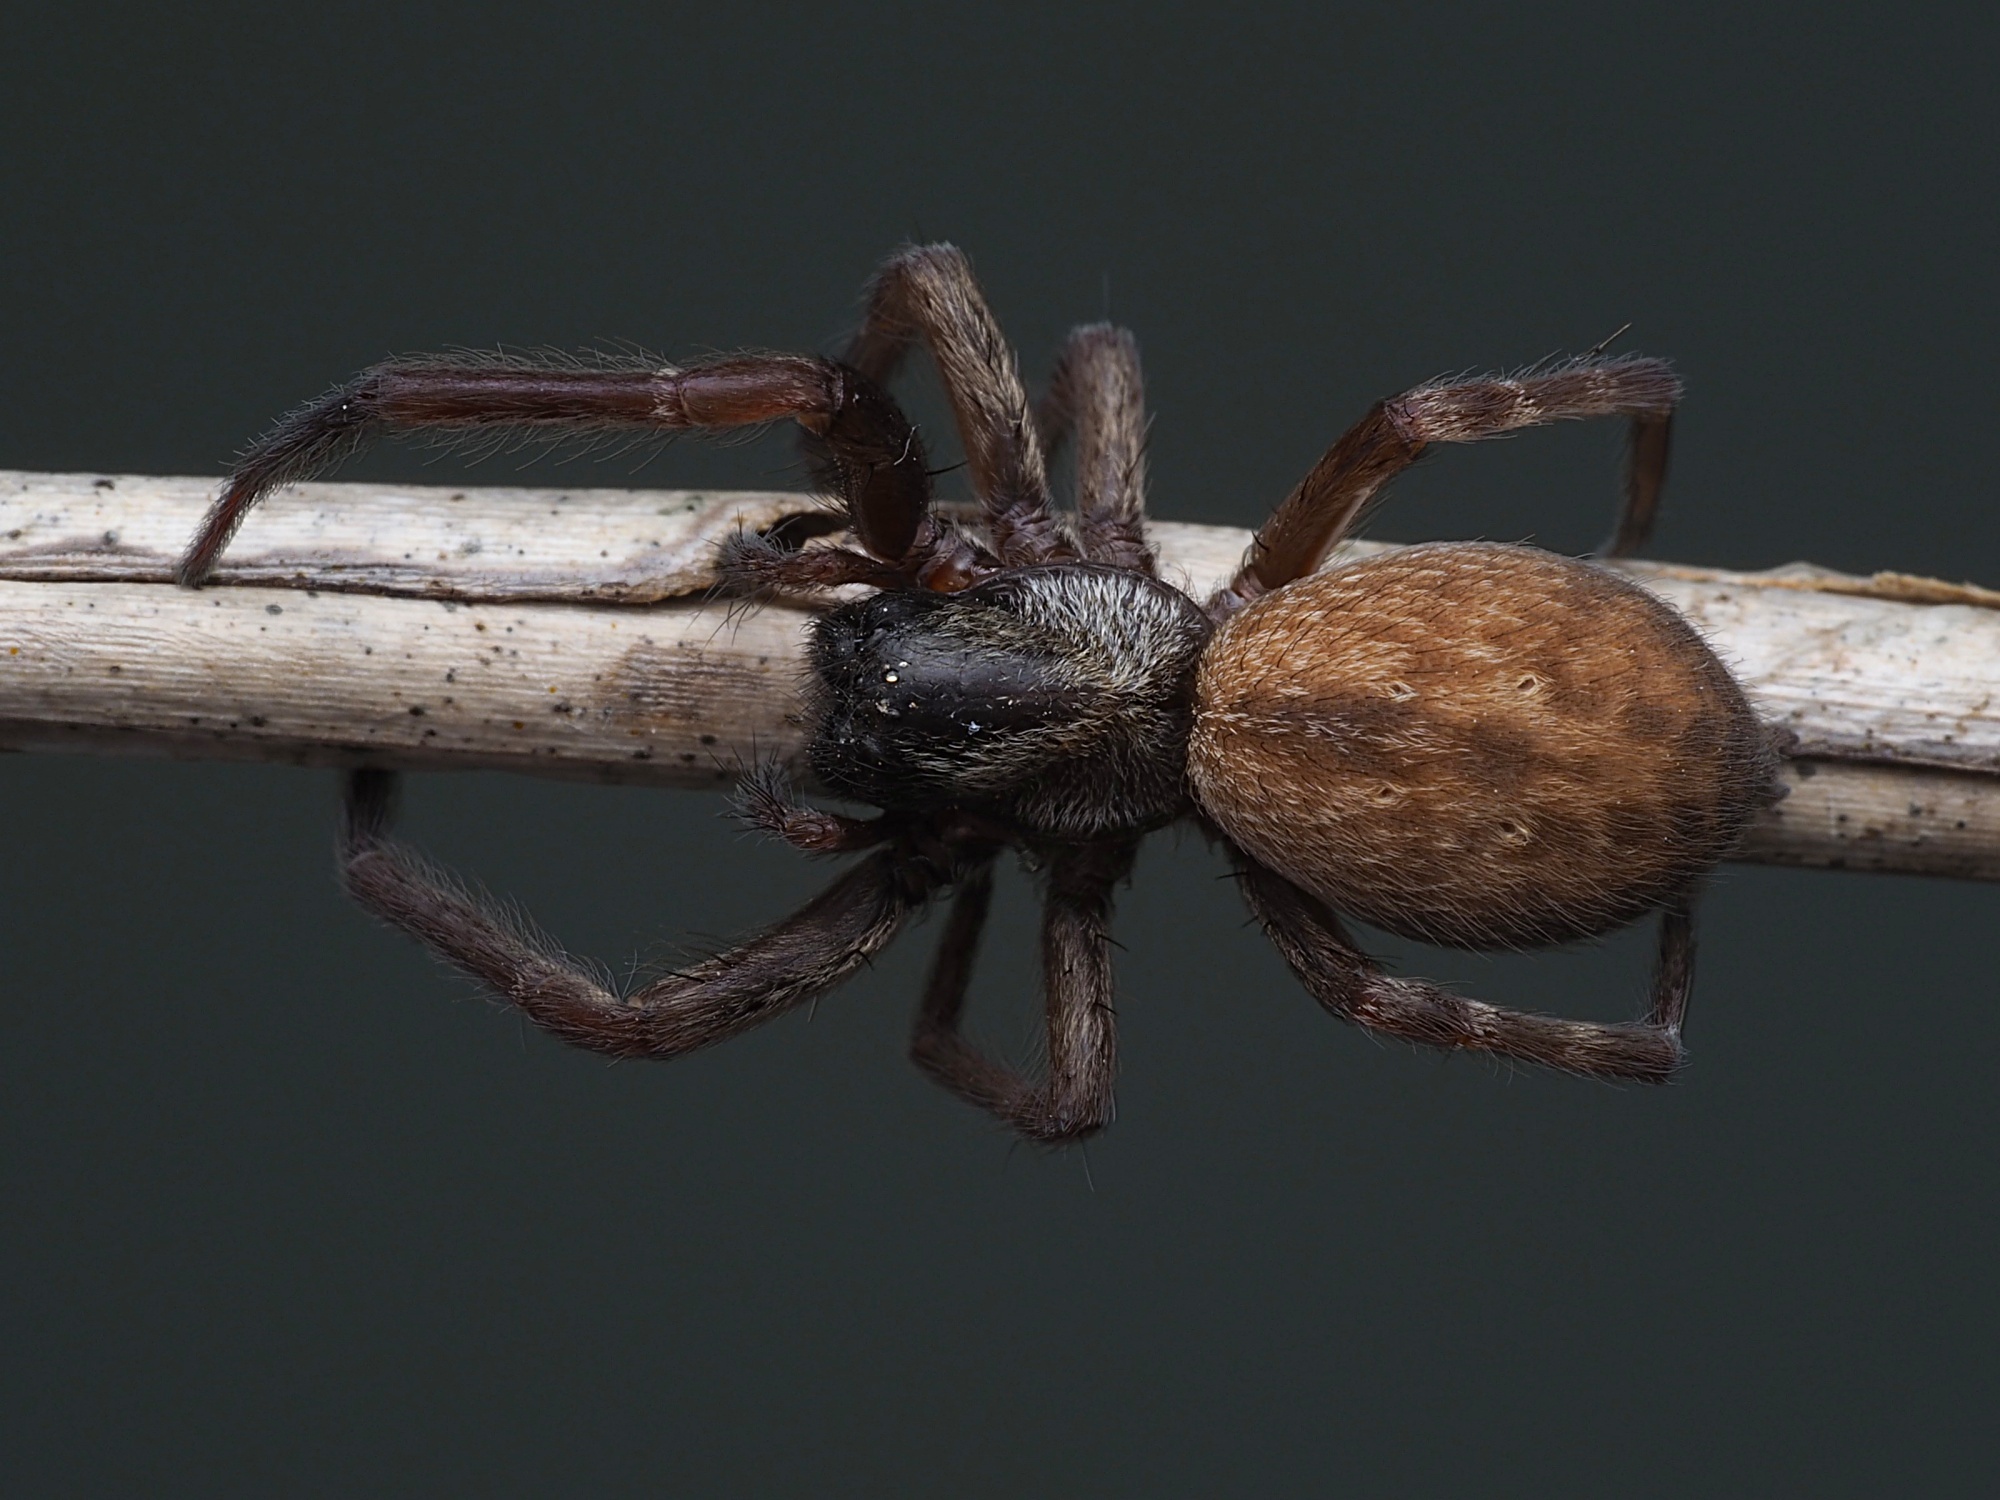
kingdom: Animalia
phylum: Arthropoda
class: Arachnida
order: Araneae
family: Desidae
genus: Badumna
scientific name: Badumna longinqua
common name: Gray house spider
